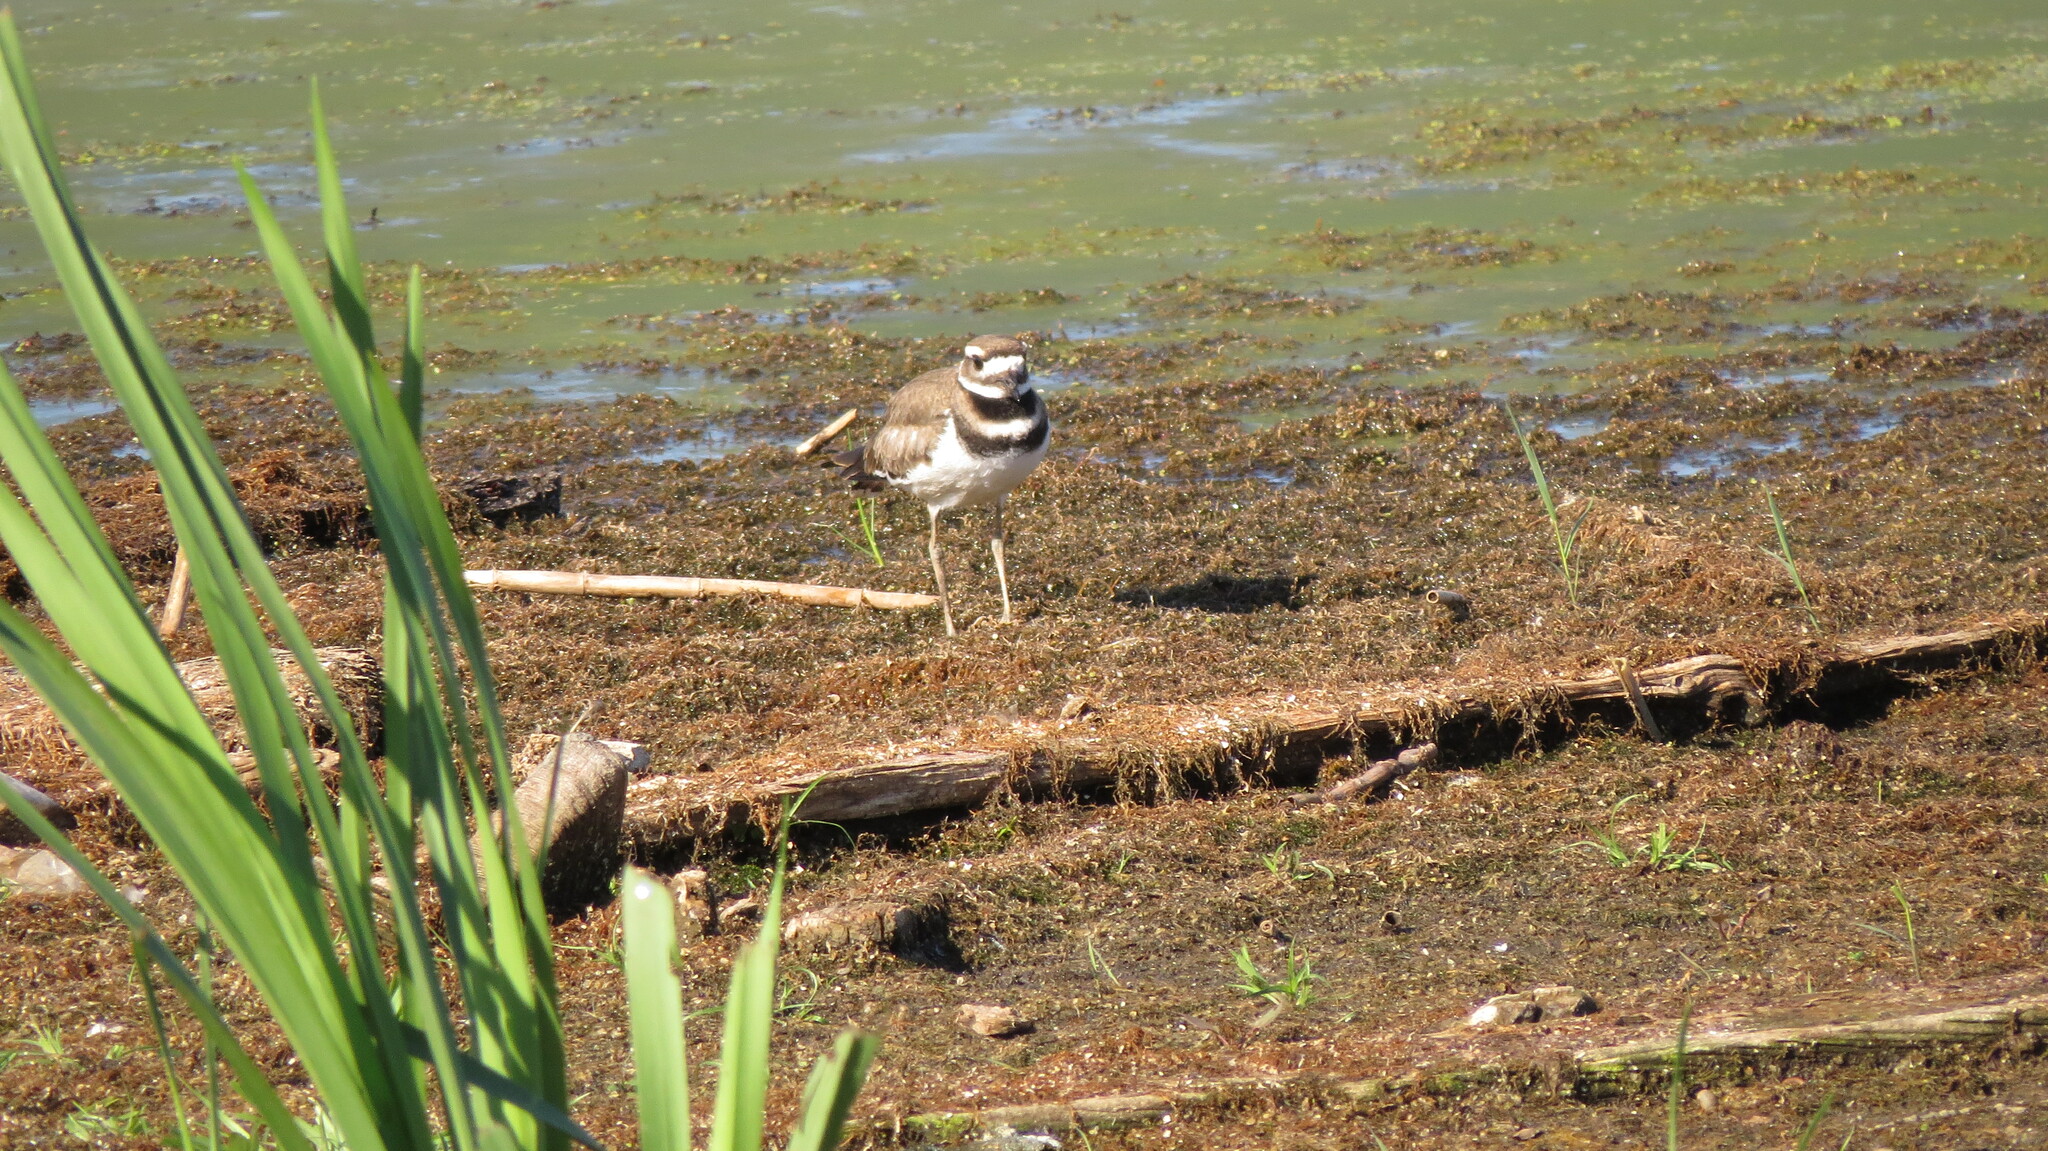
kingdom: Animalia
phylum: Chordata
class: Aves
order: Charadriiformes
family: Charadriidae
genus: Charadrius
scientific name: Charadrius vociferus
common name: Killdeer
